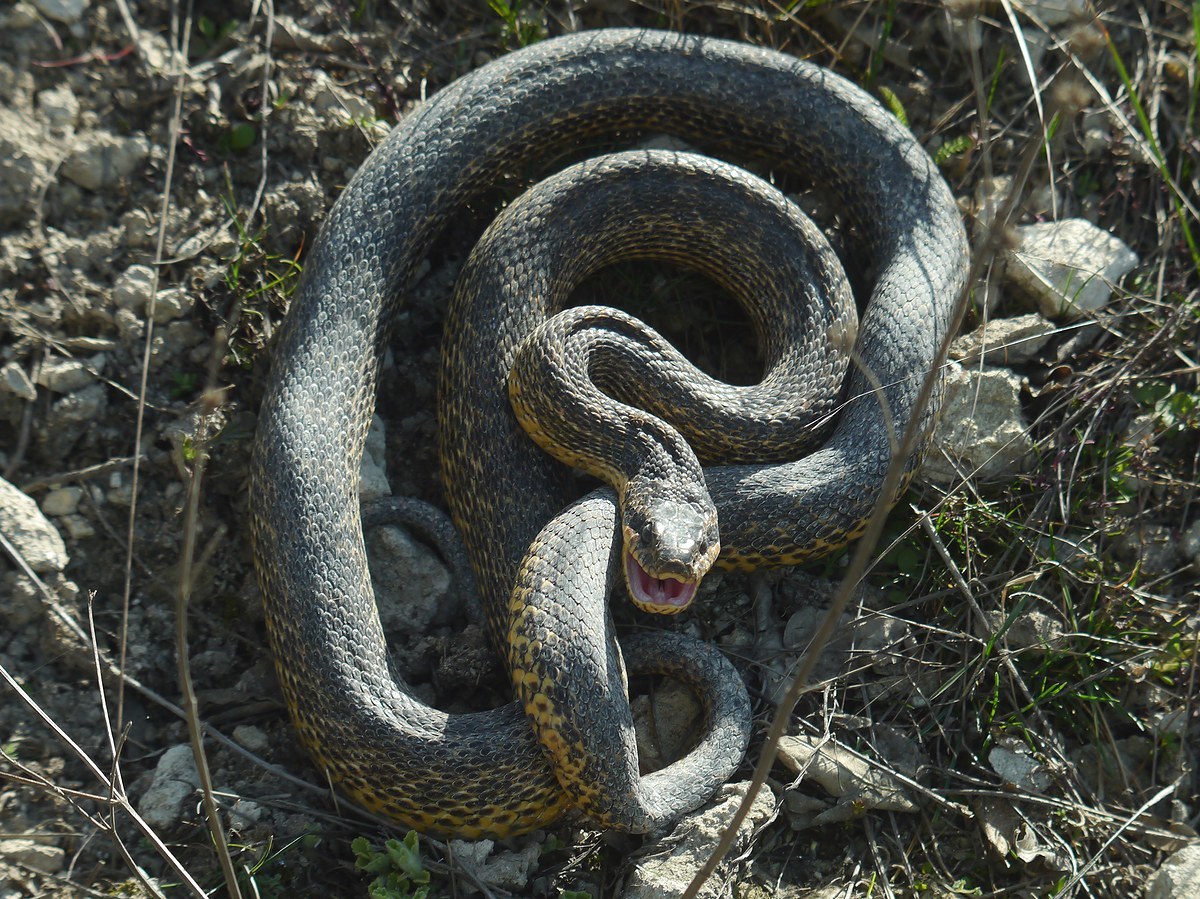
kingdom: Animalia
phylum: Chordata
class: Squamata
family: Colubridae
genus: Elaphe
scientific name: Elaphe sauromates
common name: Eastern four-lined ratsnake
